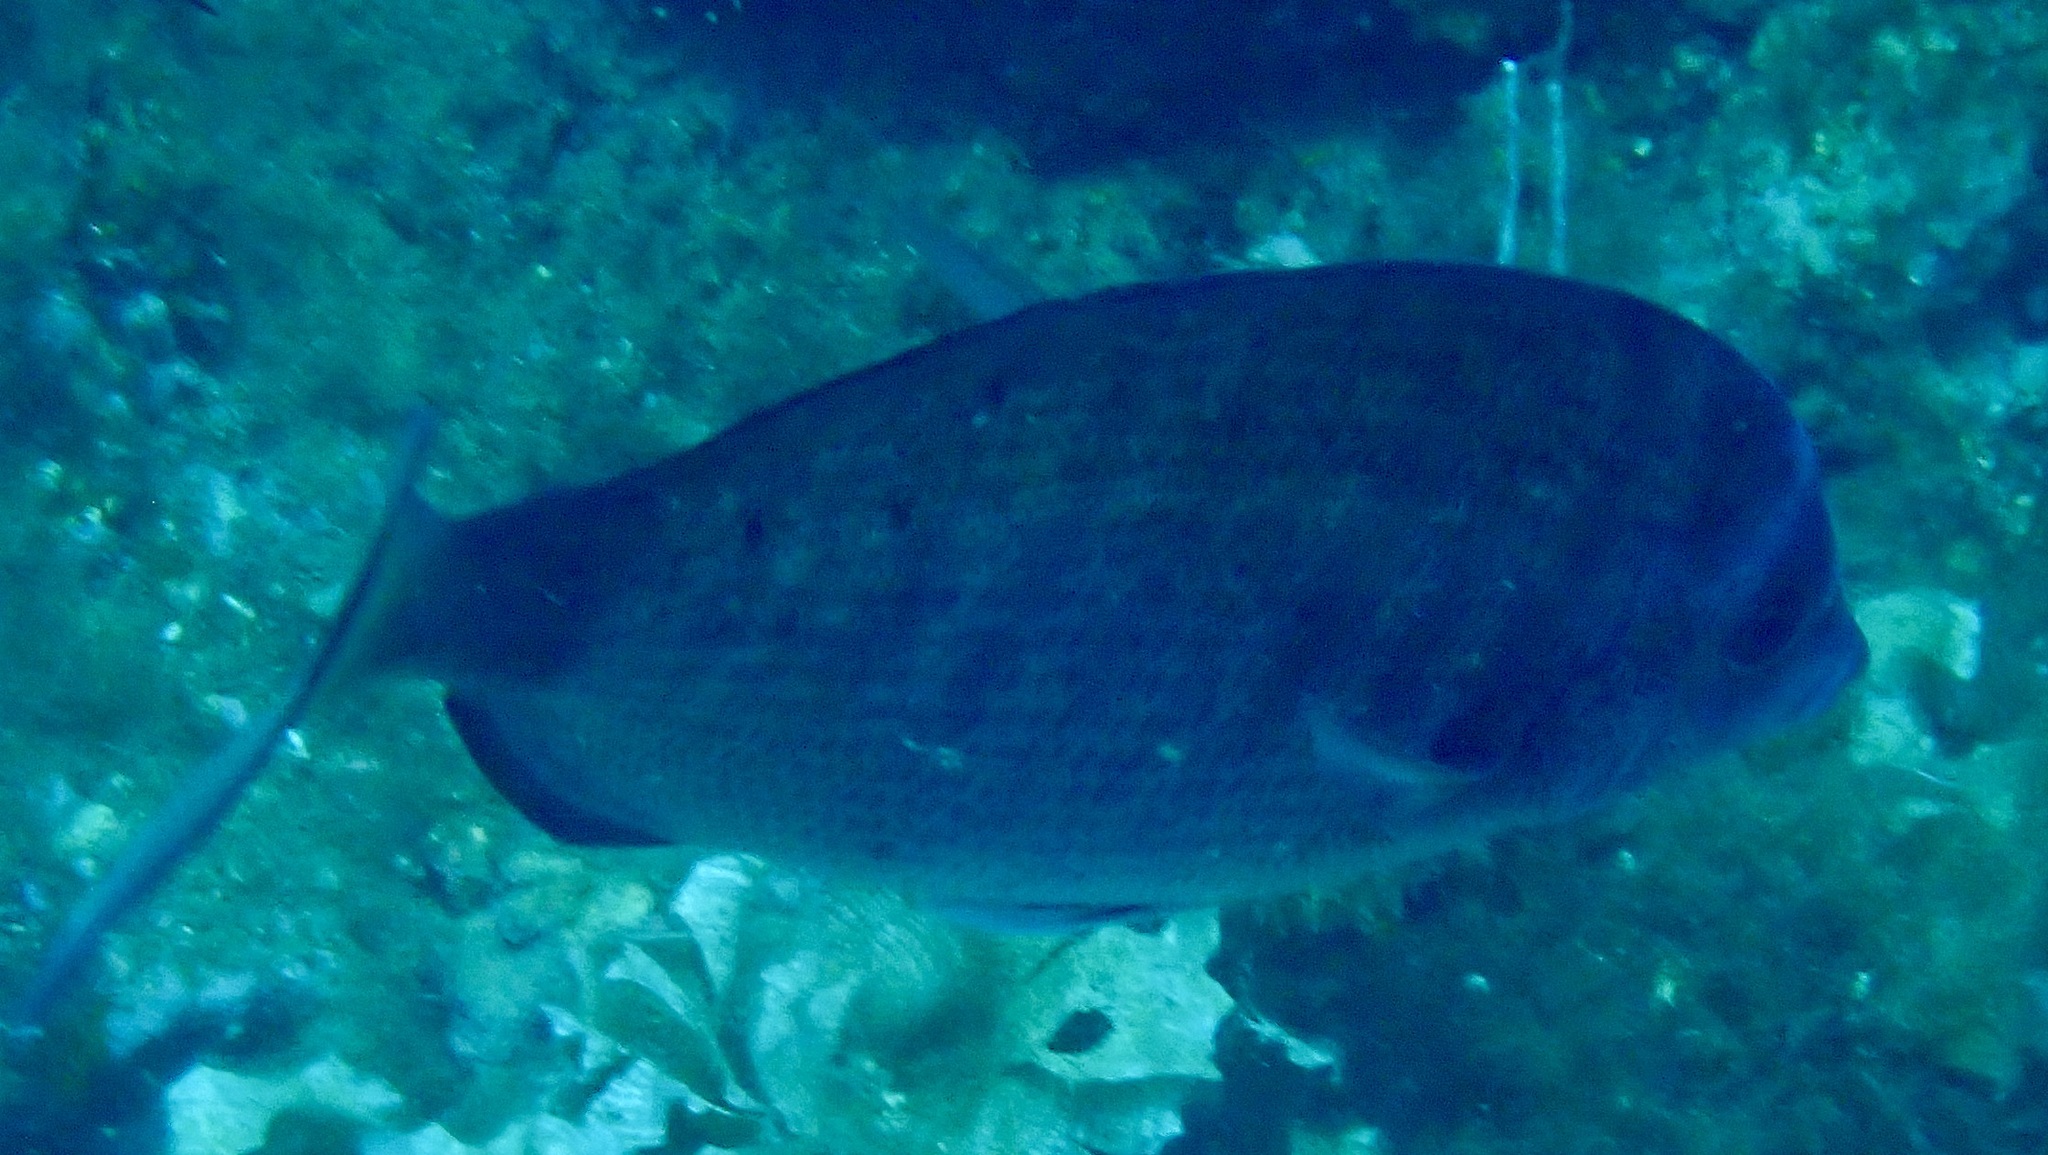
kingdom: Animalia
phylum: Chordata
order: Perciformes
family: Sparidae
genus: Diplodus
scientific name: Diplodus puntazzo
